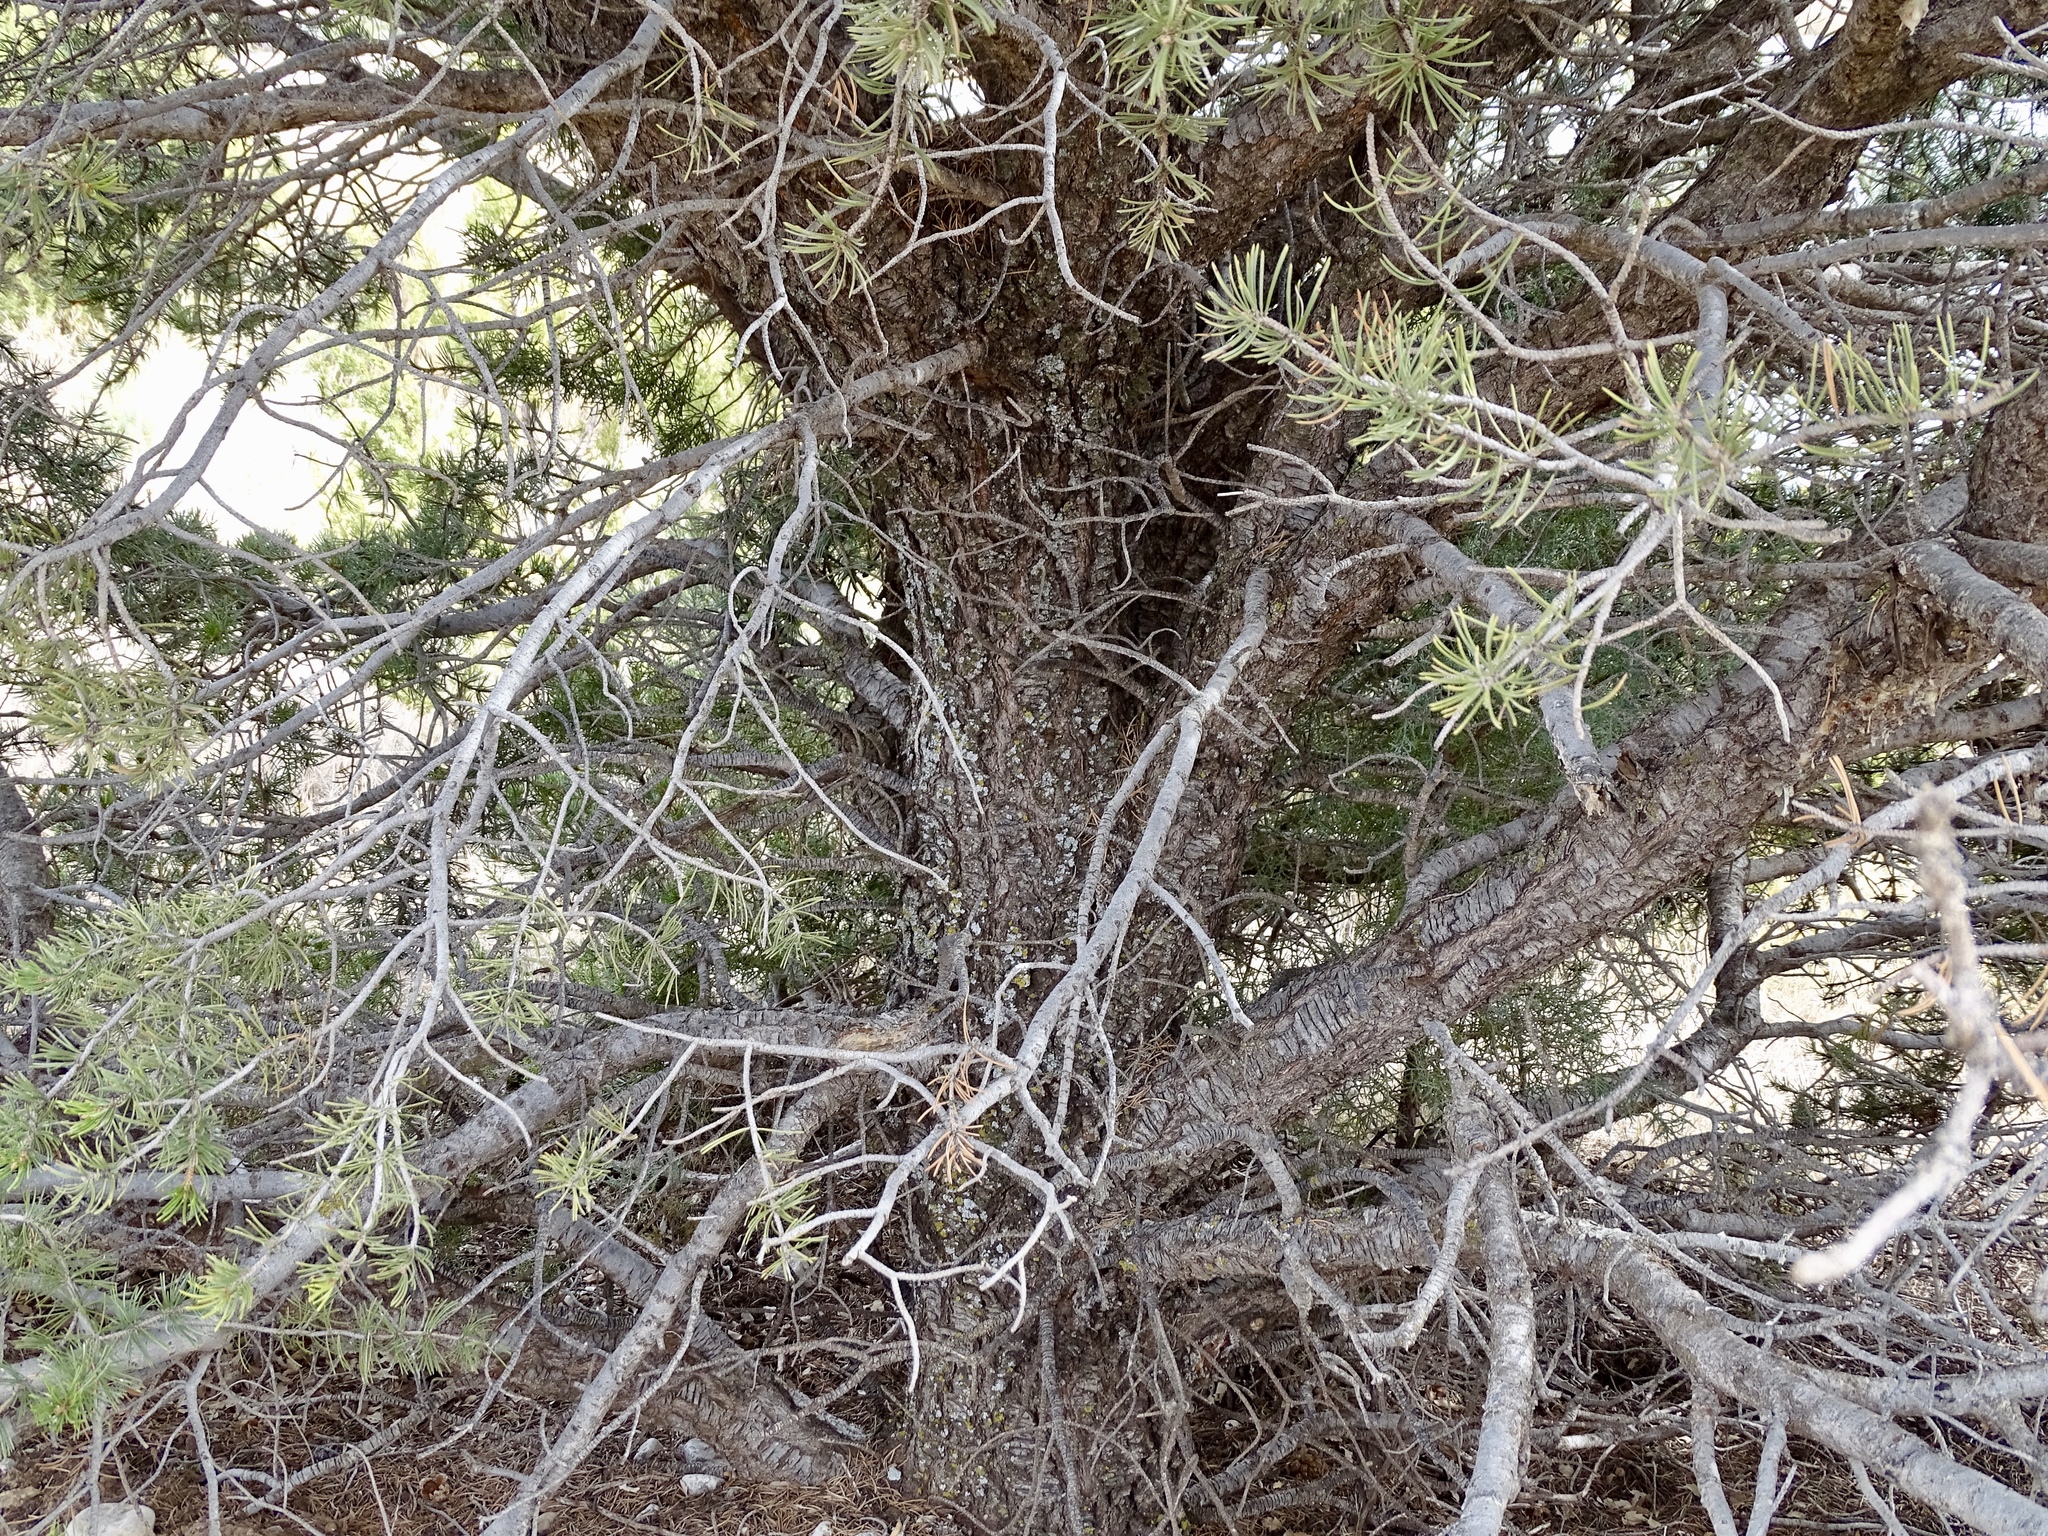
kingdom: Plantae
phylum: Tracheophyta
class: Pinopsida
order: Pinales
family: Pinaceae
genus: Pinus
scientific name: Pinus edulis
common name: Colorado pinyon
